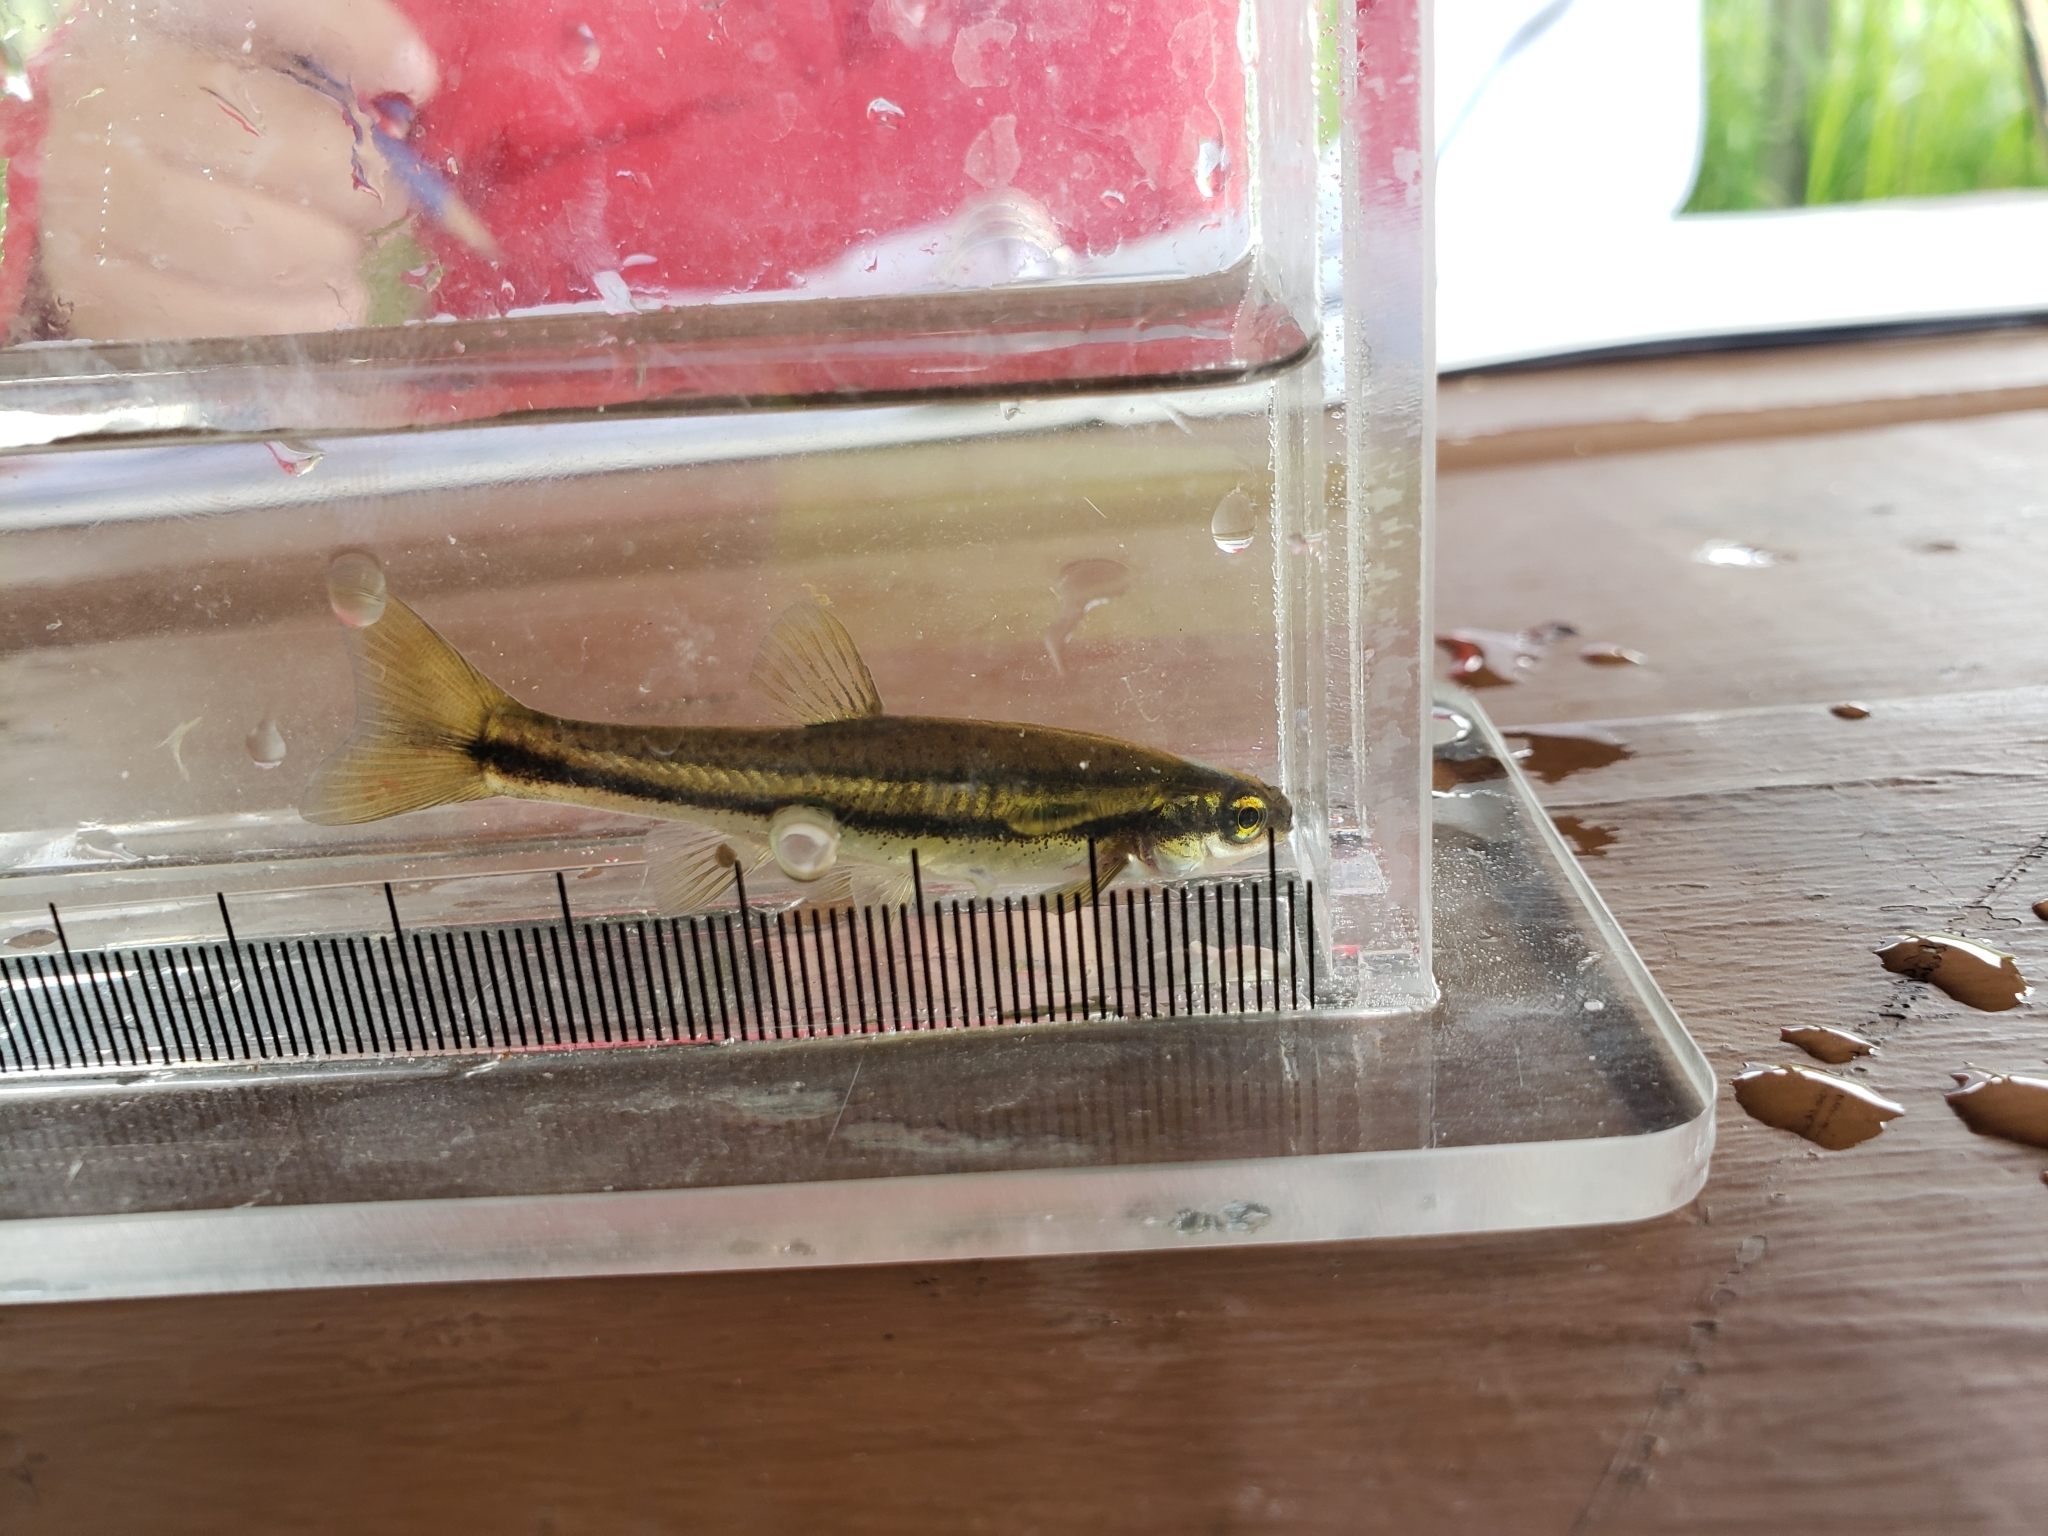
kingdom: Animalia
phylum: Chordata
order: Cypriniformes
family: Cyprinidae
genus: Chrosomus
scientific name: Chrosomus eos
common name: Northern redbelly dace
